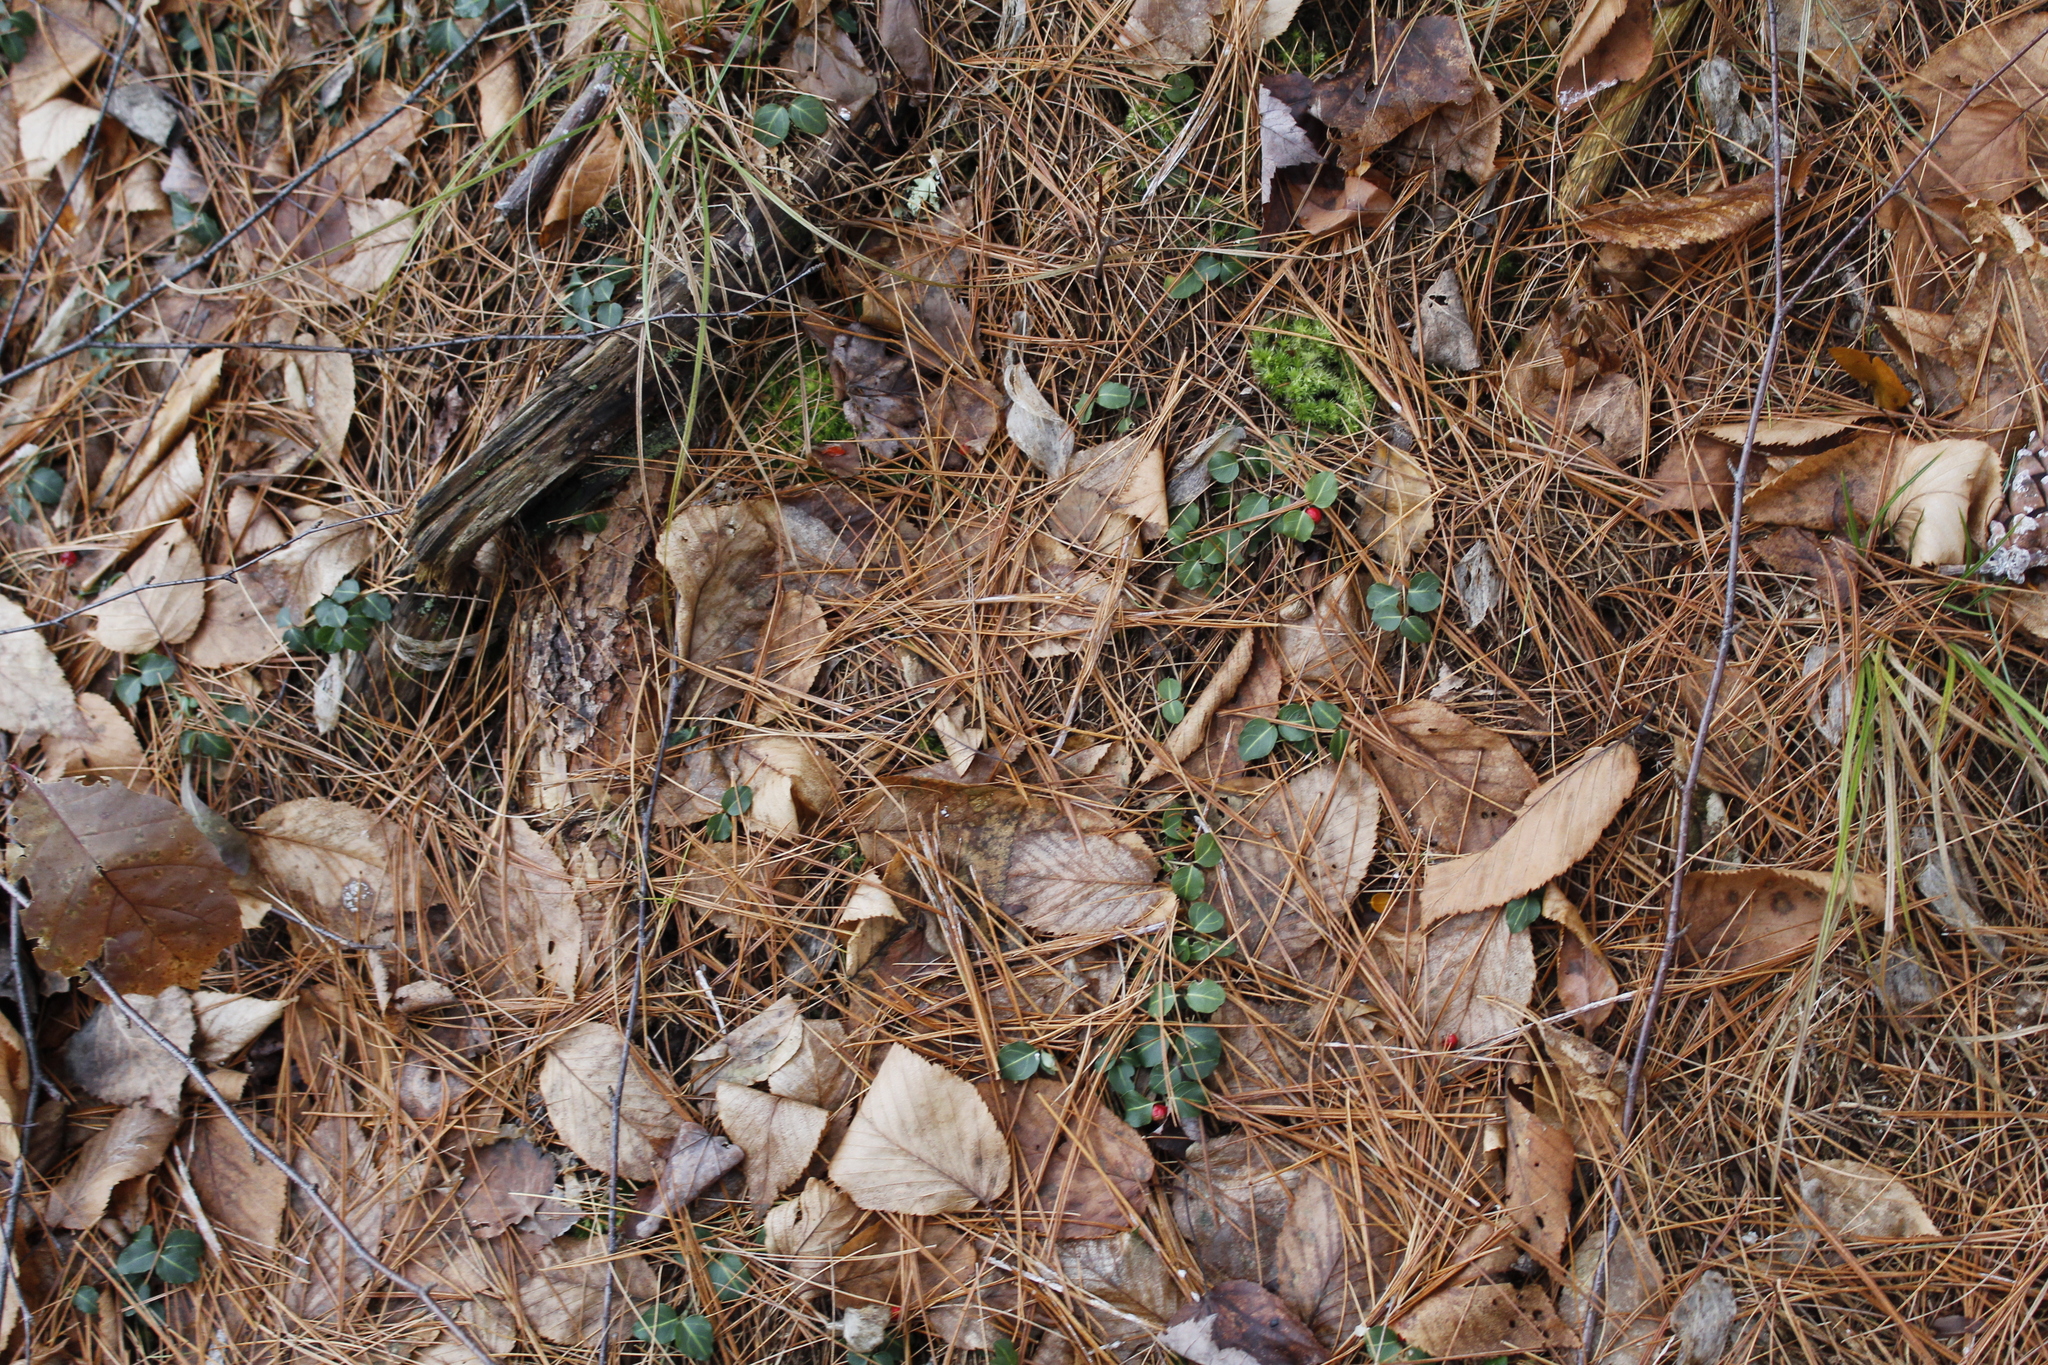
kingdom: Plantae
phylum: Tracheophyta
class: Magnoliopsida
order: Gentianales
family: Rubiaceae
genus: Mitchella
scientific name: Mitchella repens
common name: Partridge-berry
